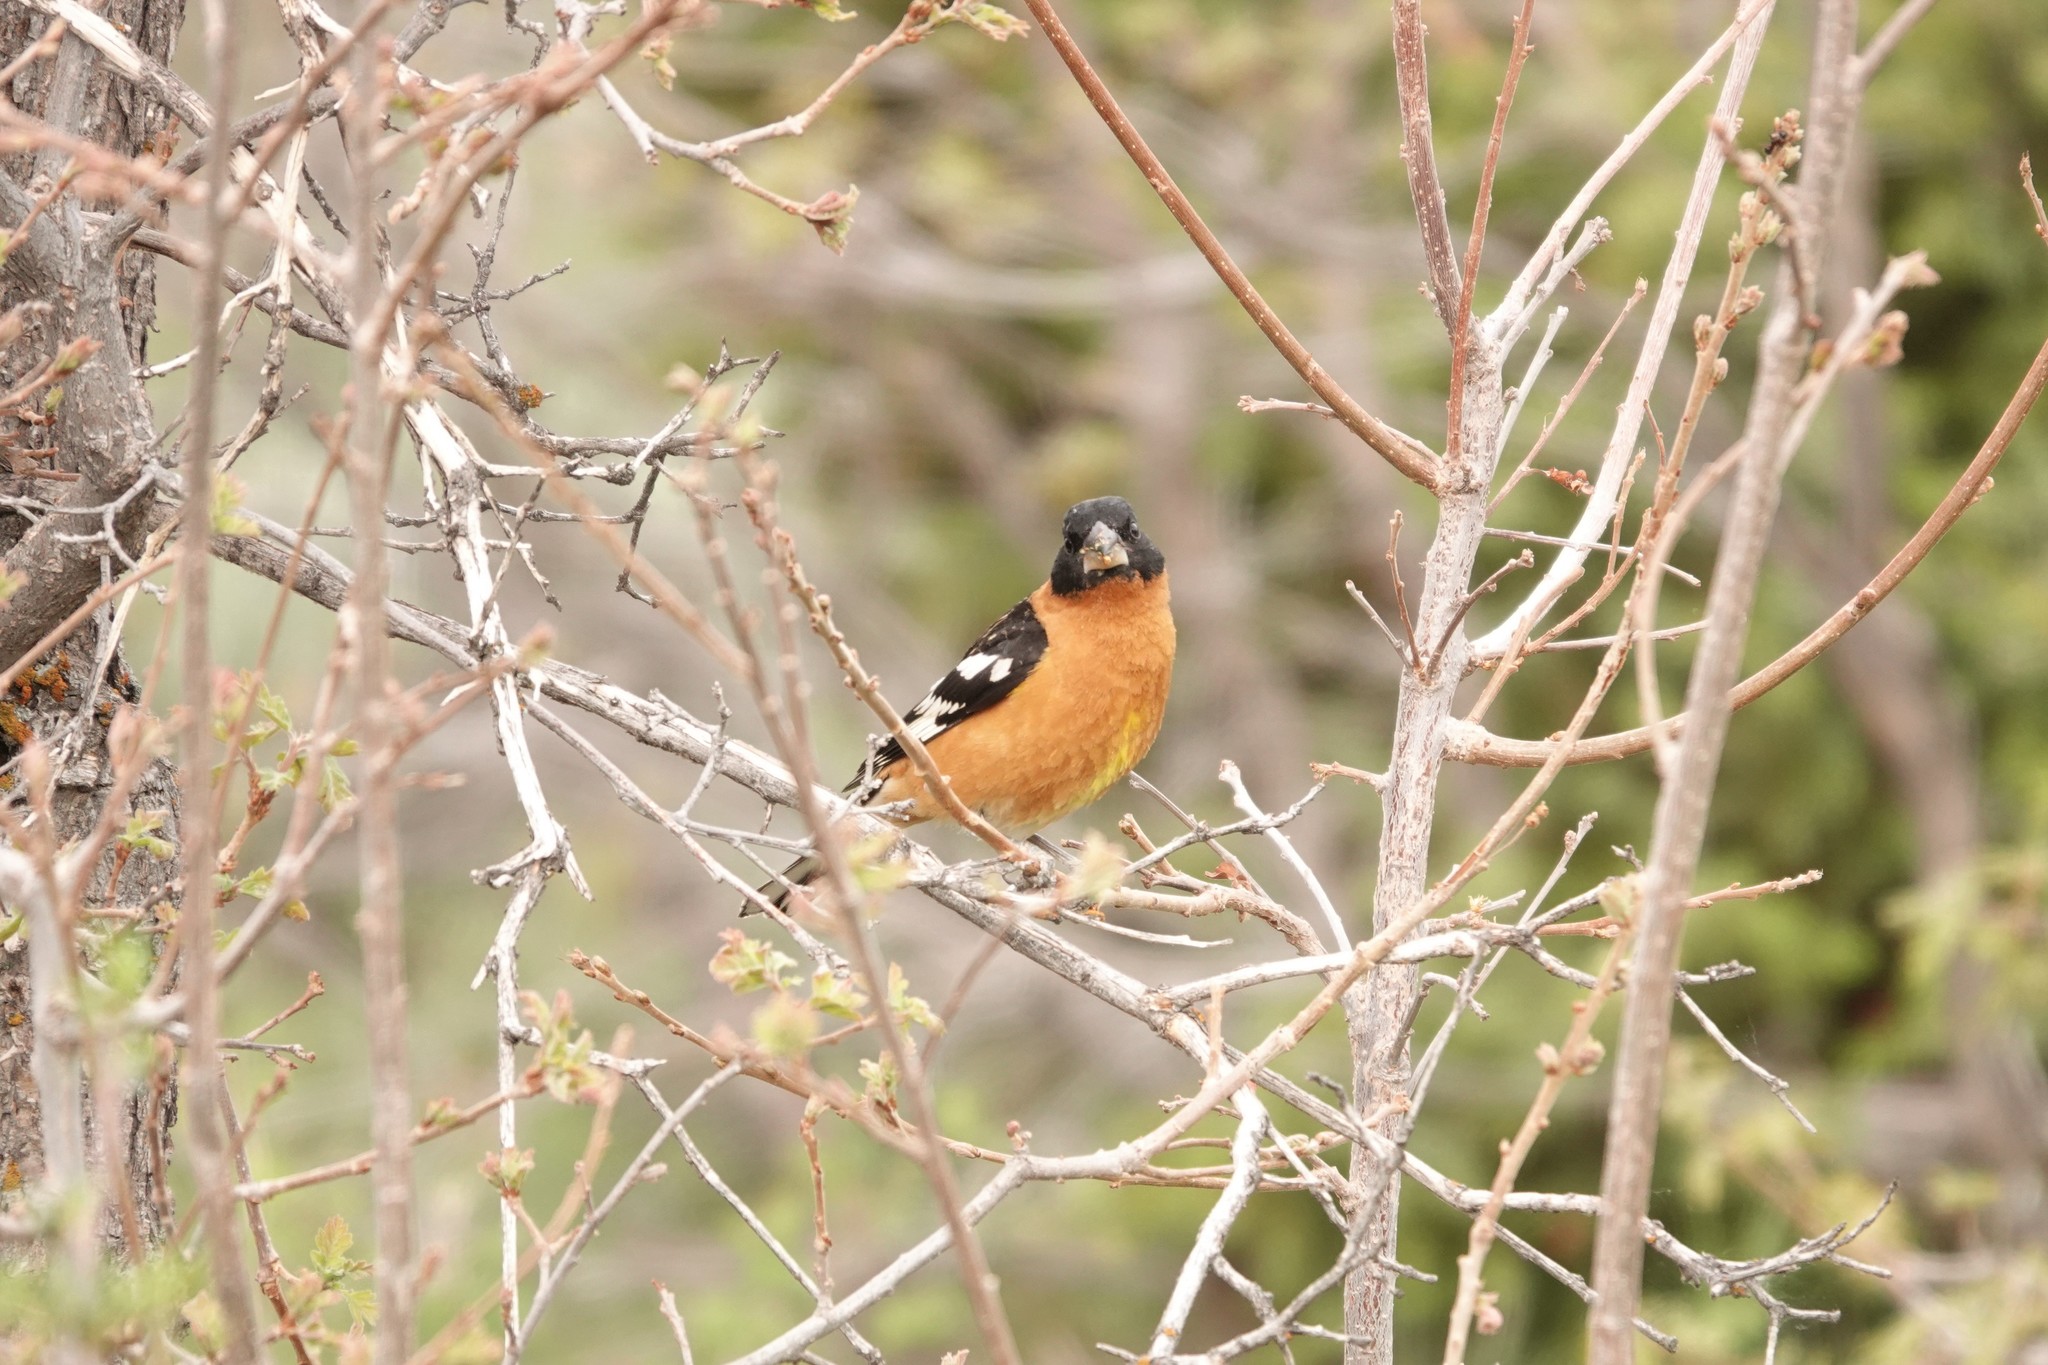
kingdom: Animalia
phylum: Chordata
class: Aves
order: Passeriformes
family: Cardinalidae
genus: Pheucticus
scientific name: Pheucticus melanocephalus
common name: Black-headed grosbeak
